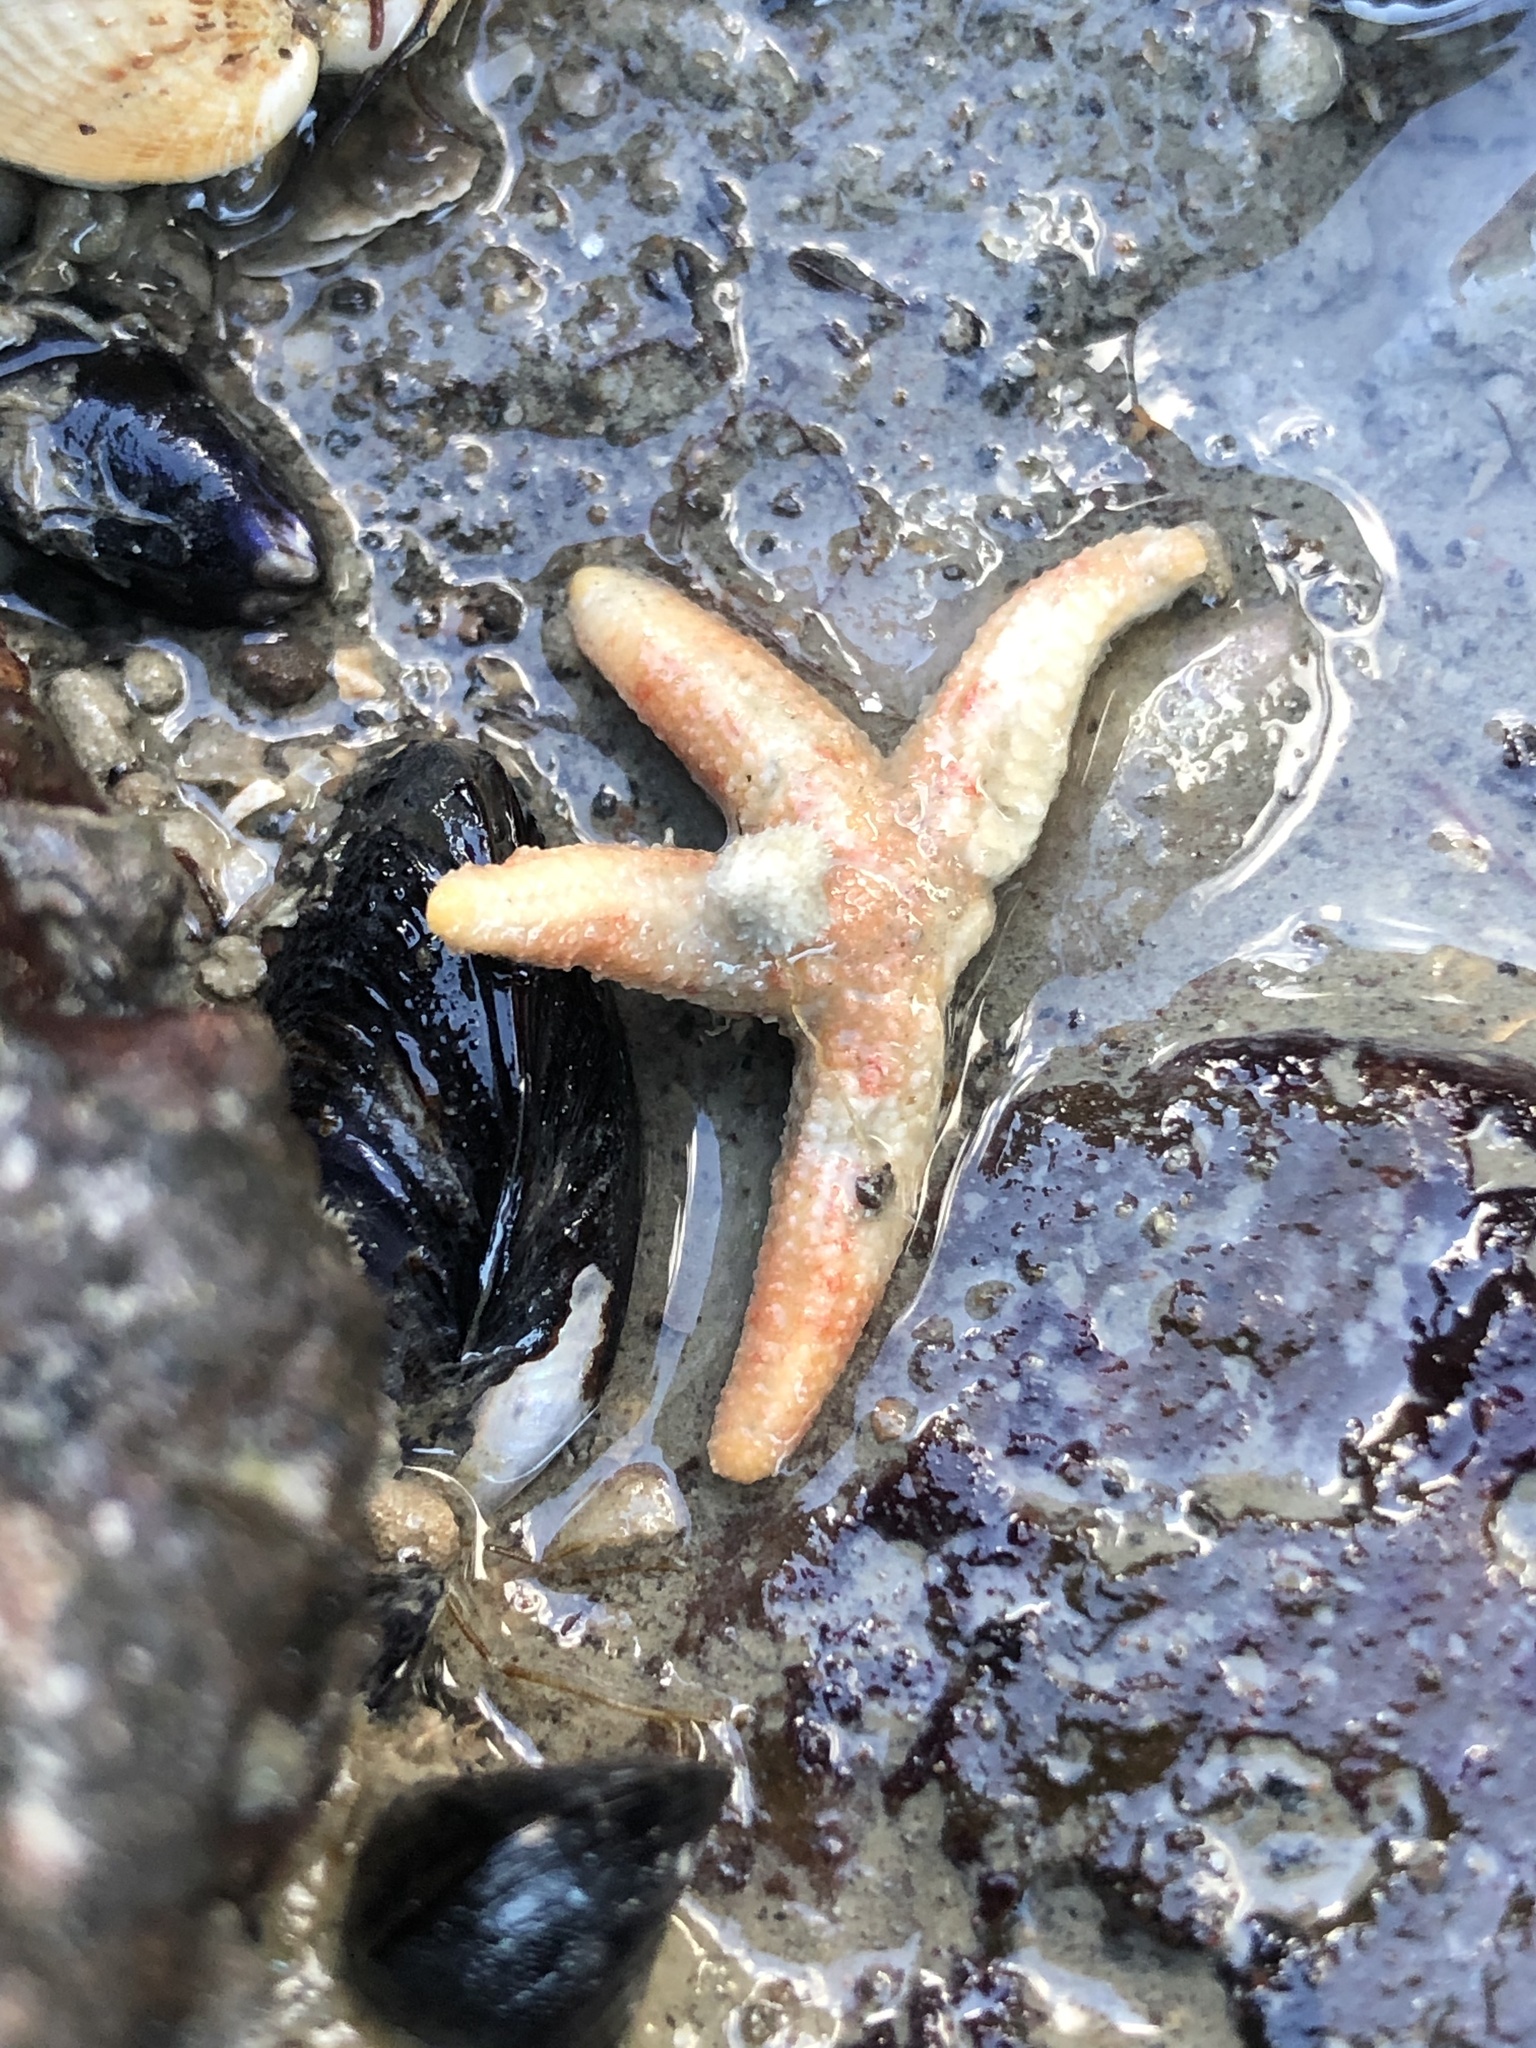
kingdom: Animalia
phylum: Echinodermata
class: Asteroidea
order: Forcipulatida
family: Stichasteridae
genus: Allostichaster
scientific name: Allostichaster polyplax
